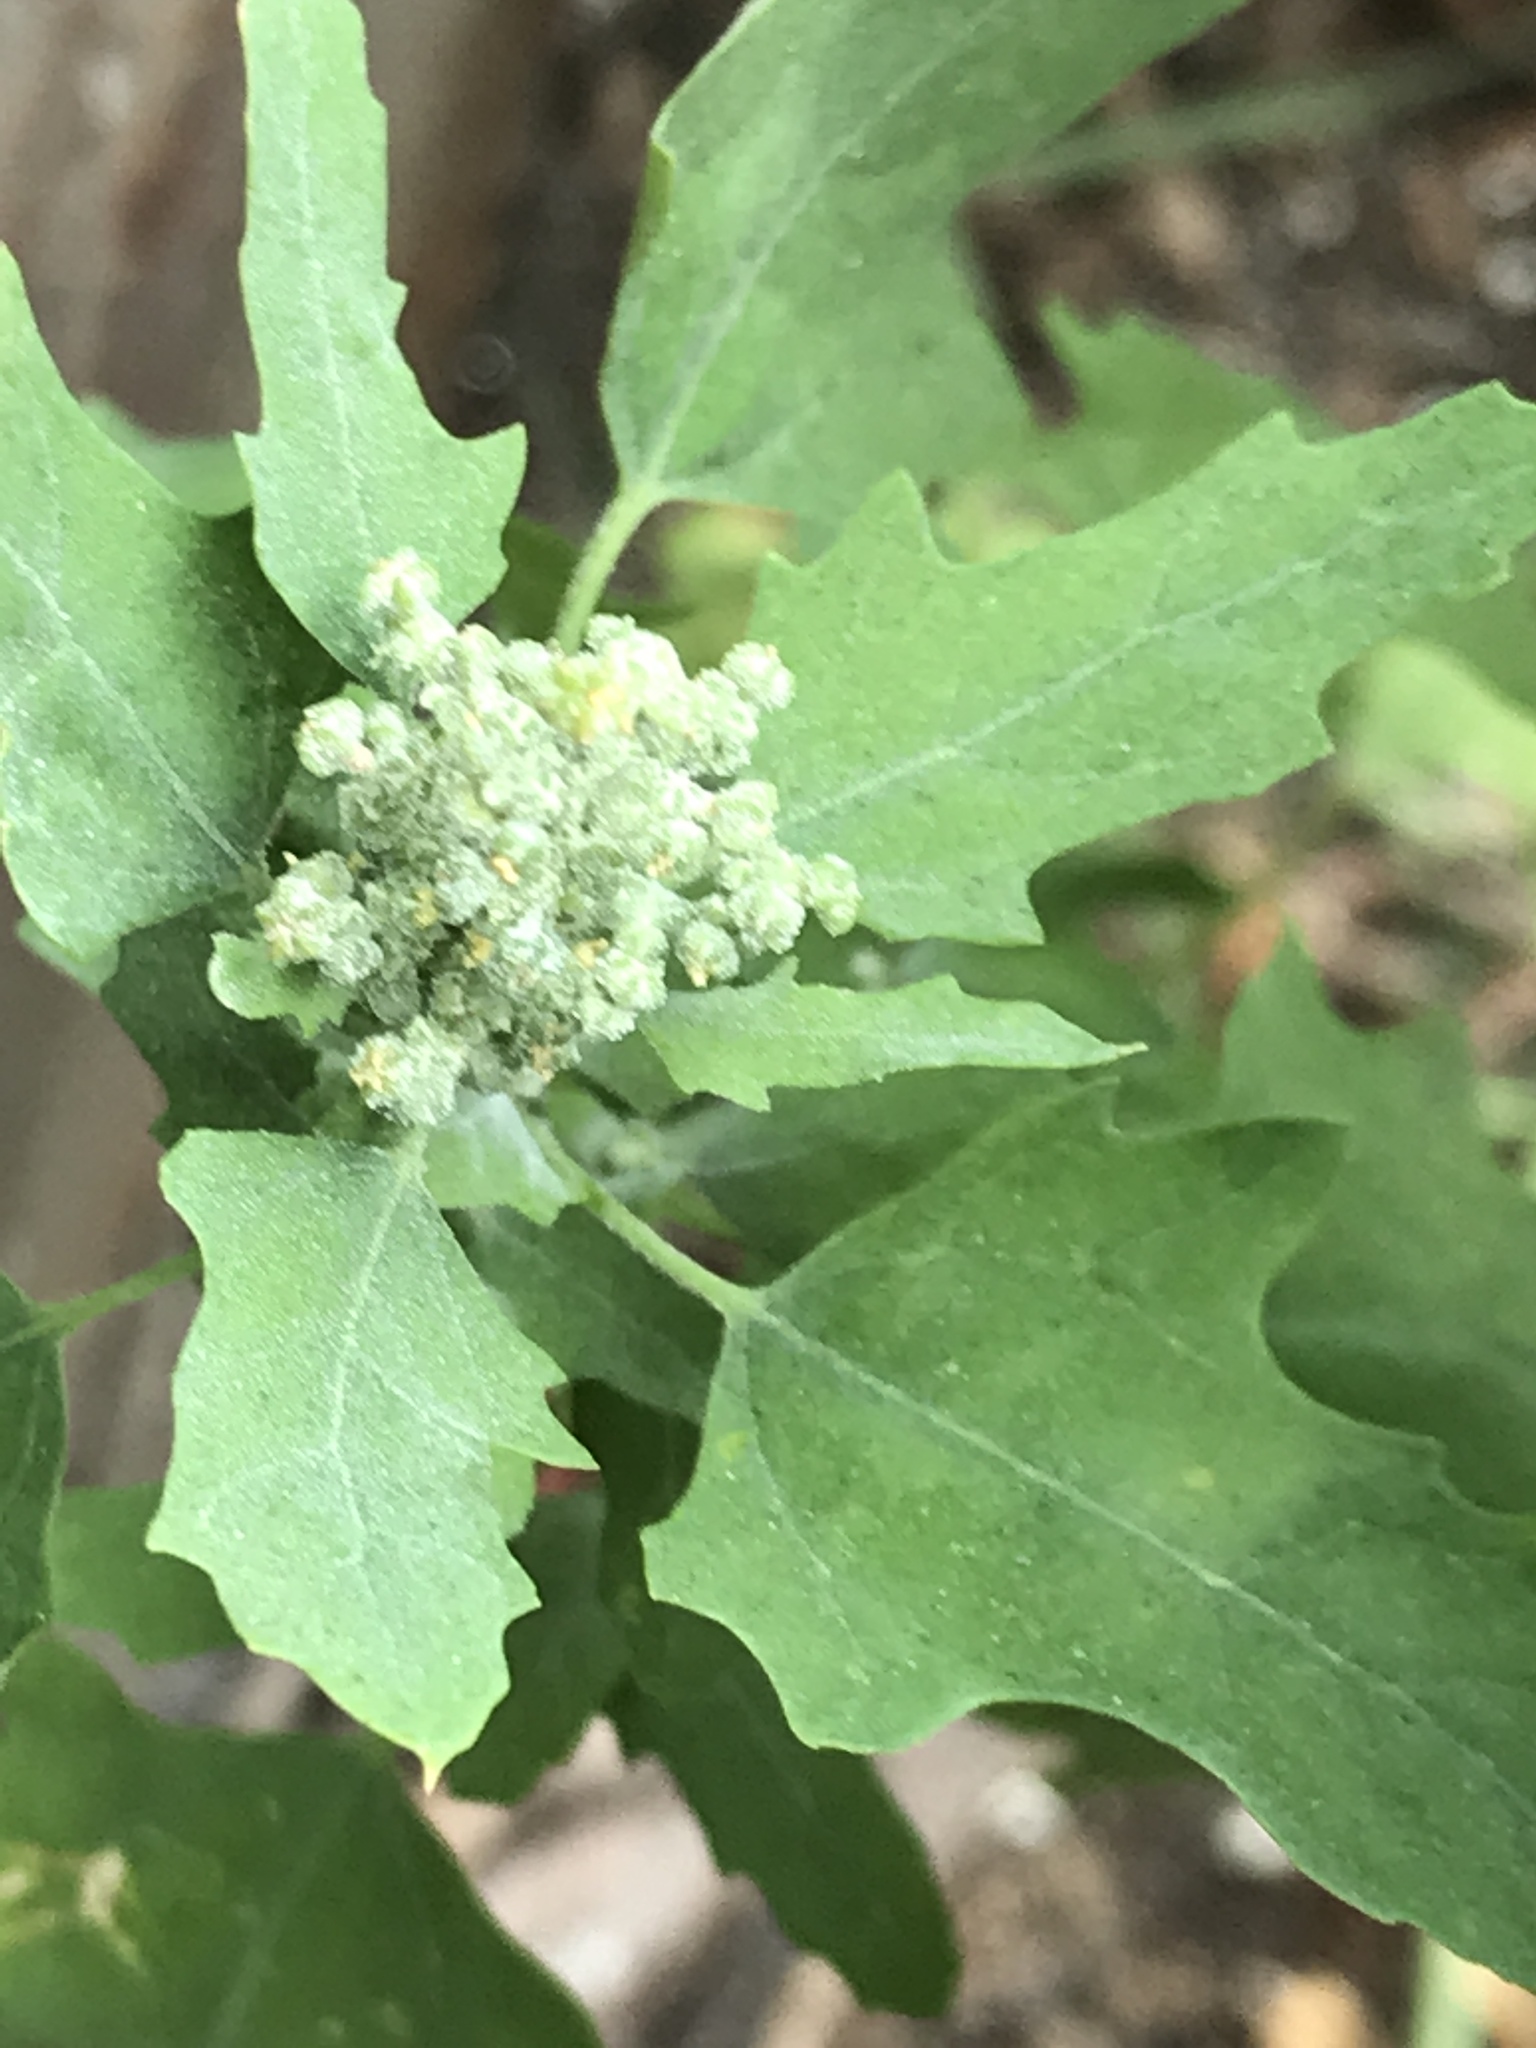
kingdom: Plantae
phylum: Tracheophyta
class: Magnoliopsida
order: Caryophyllales
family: Amaranthaceae
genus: Chenopodium
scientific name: Chenopodium album
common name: Fat-hen
